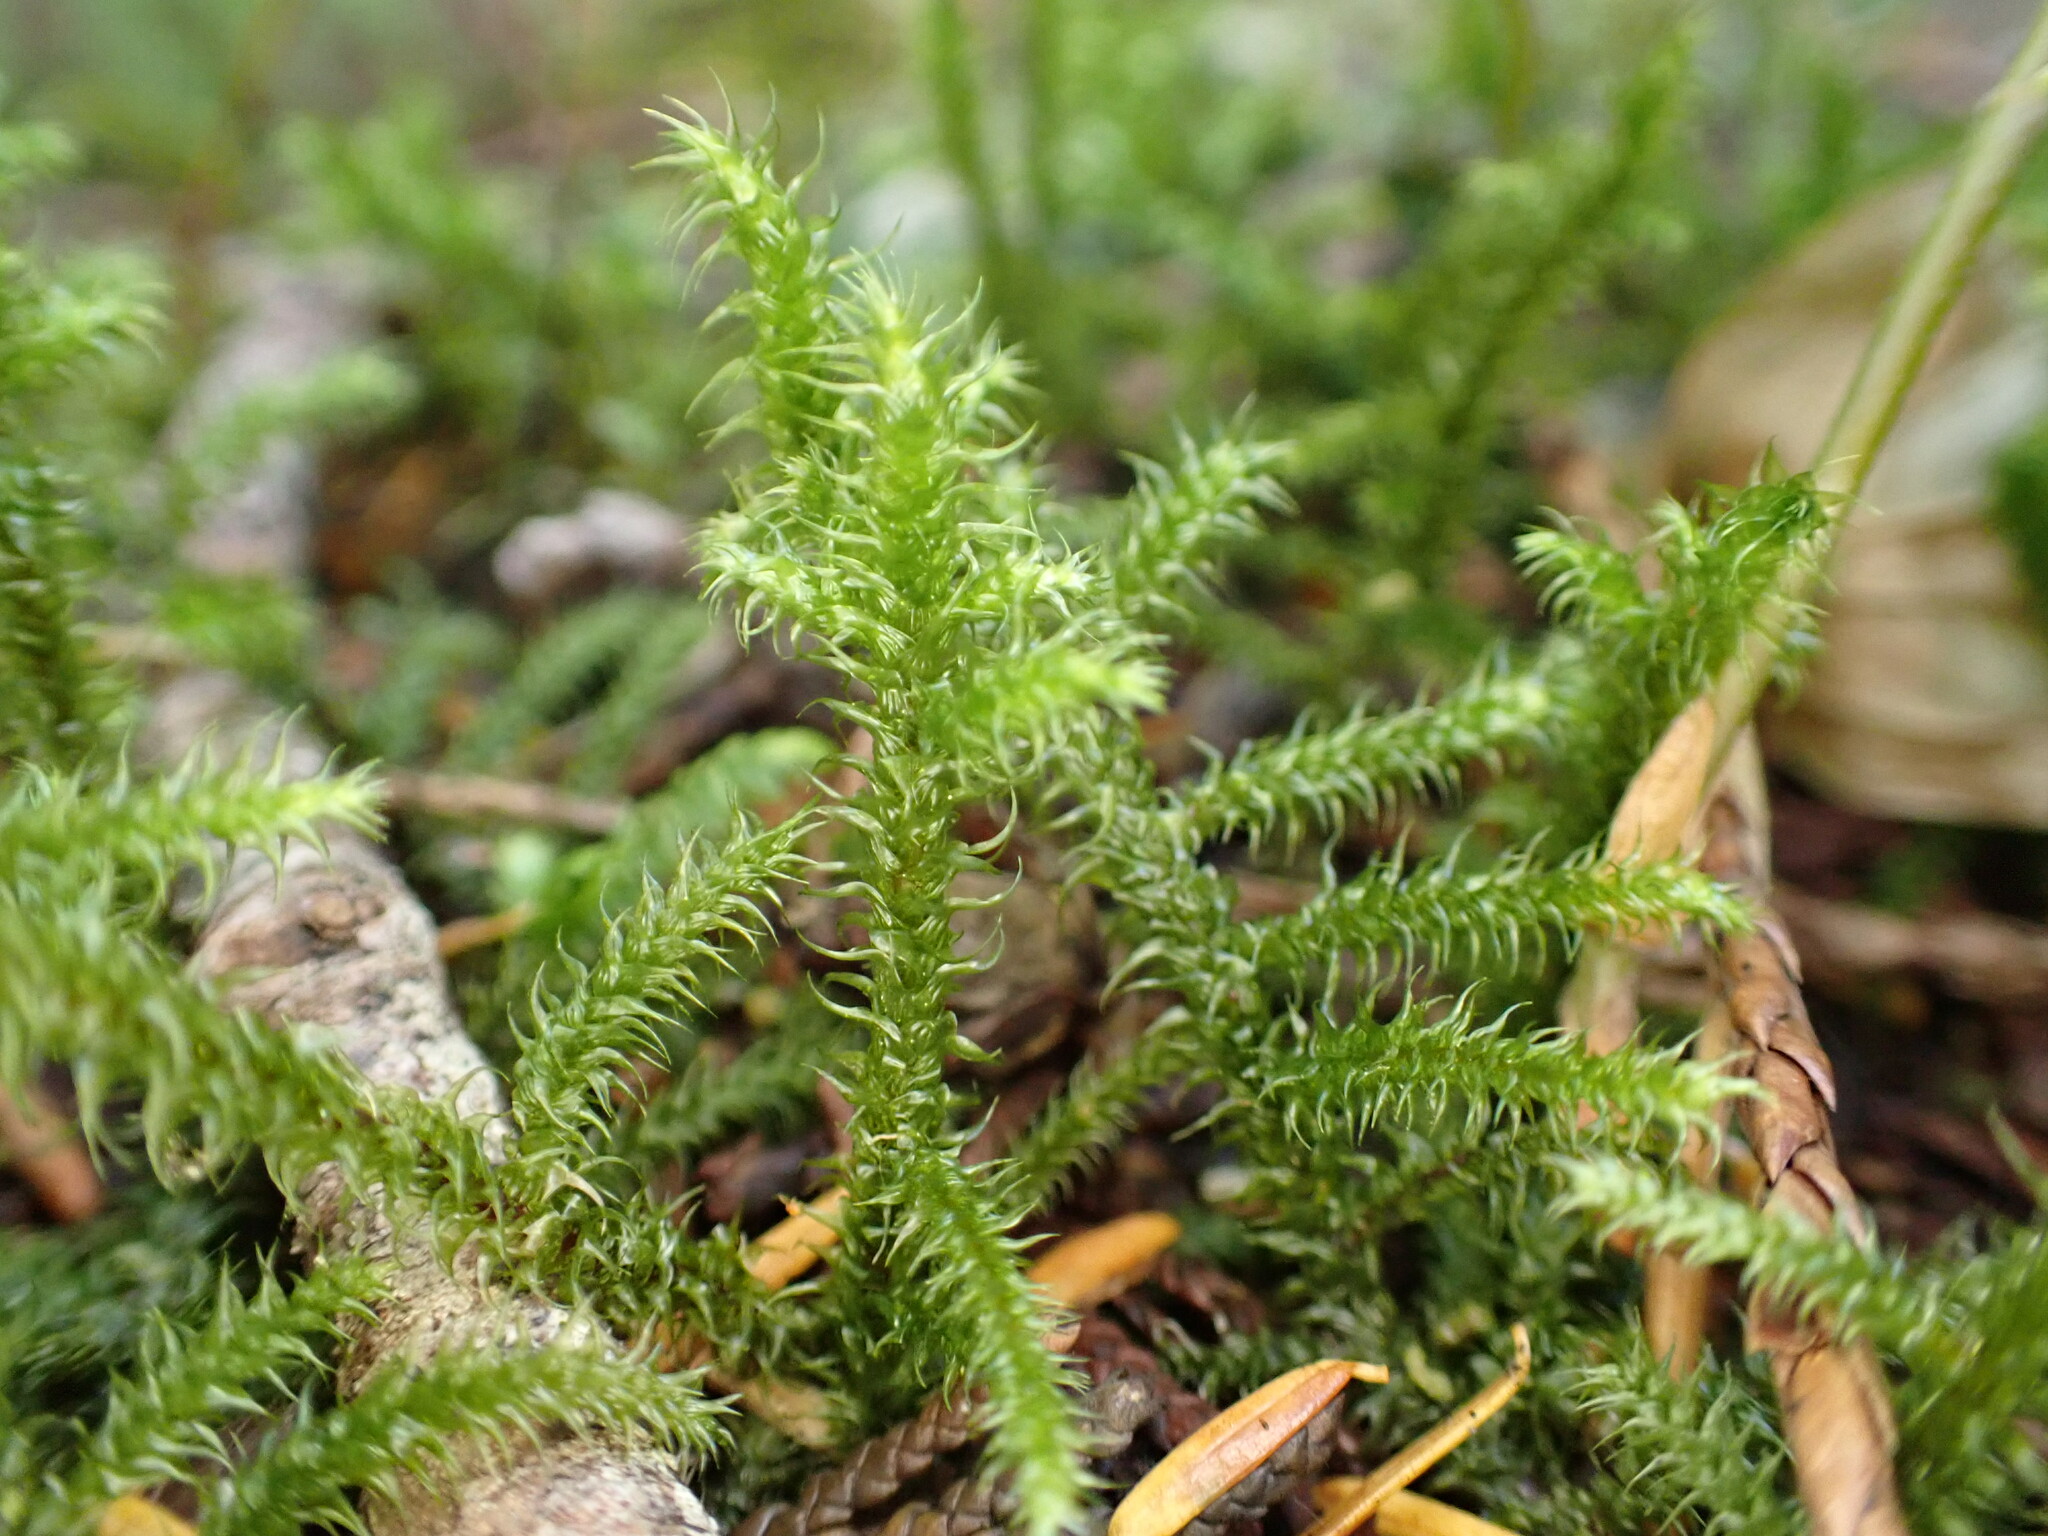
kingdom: Plantae
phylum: Bryophyta
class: Bryopsida
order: Hypnales
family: Hylocomiaceae
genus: Rhytidiadelphus
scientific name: Rhytidiadelphus loreus
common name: Lanky moss
